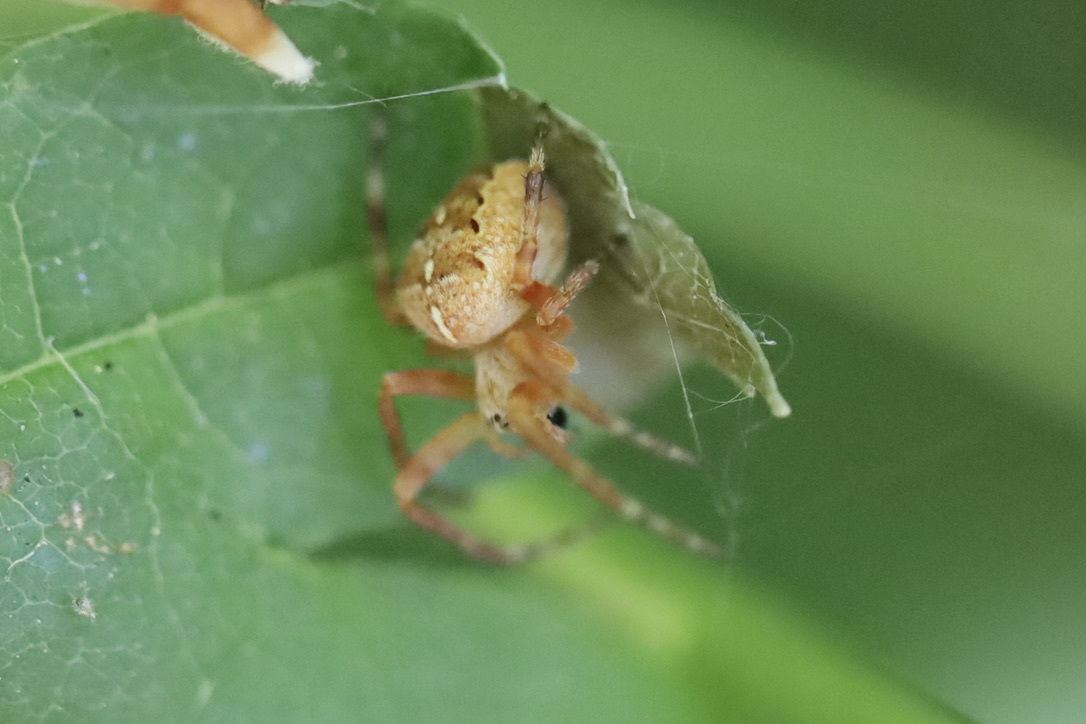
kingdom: Animalia
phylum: Arthropoda
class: Arachnida
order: Araneae
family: Araneidae
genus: Araneus
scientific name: Araneus diadematus
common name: Cross orbweaver
